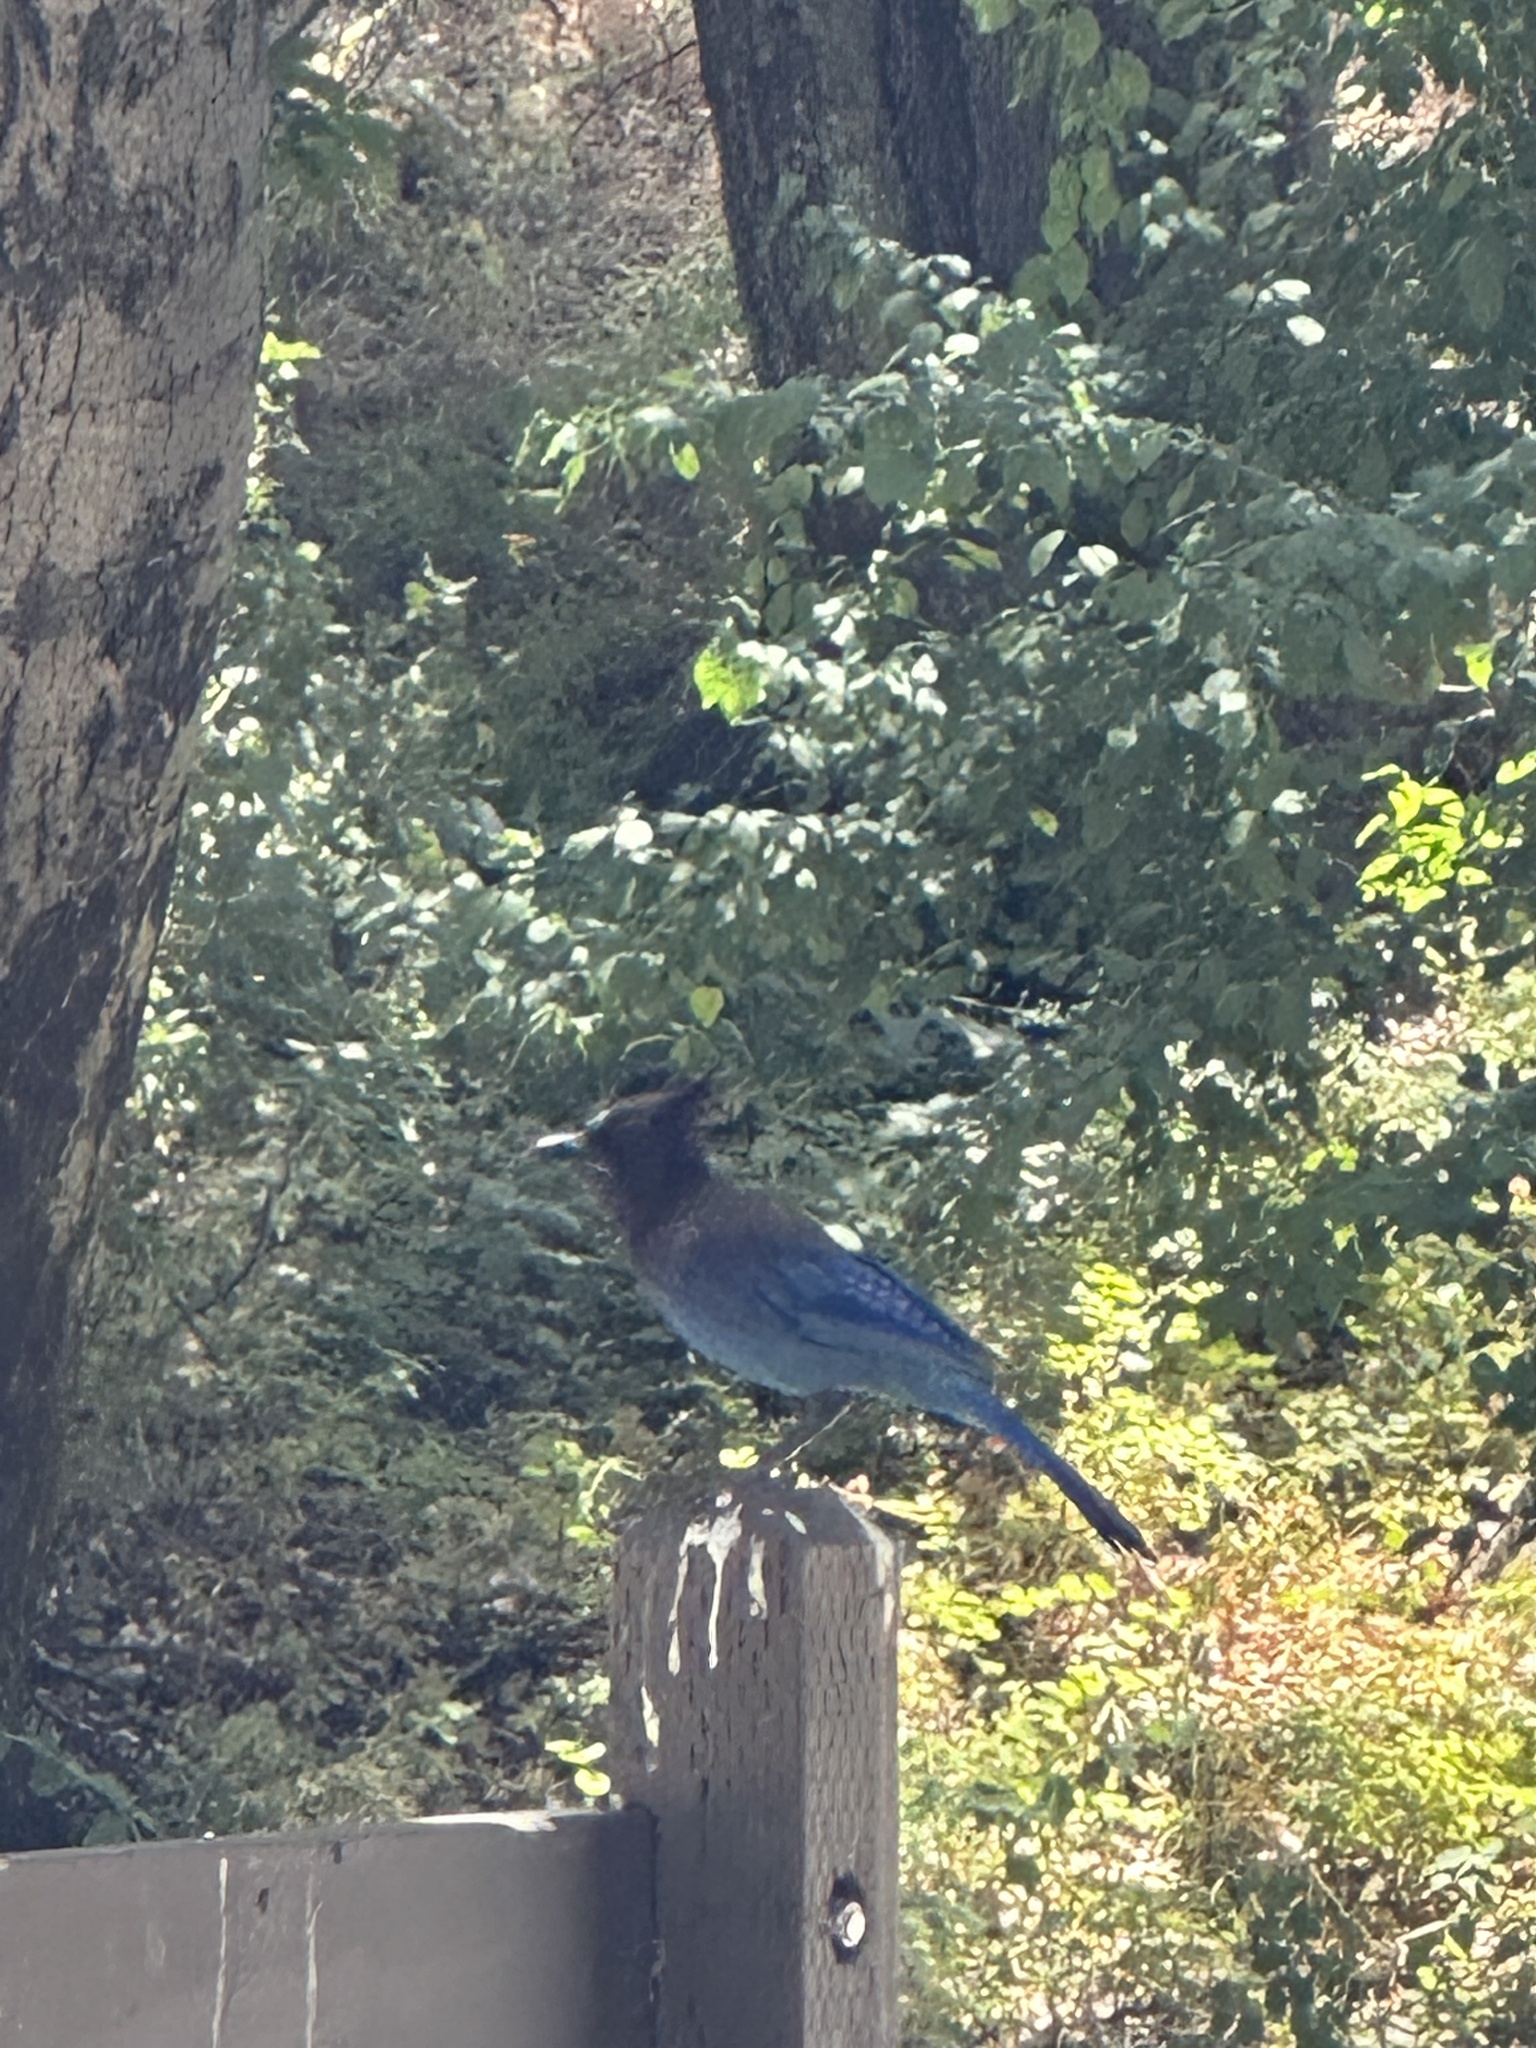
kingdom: Animalia
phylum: Chordata
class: Aves
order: Passeriformes
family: Corvidae
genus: Cyanocitta
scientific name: Cyanocitta stelleri
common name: Steller's jay
